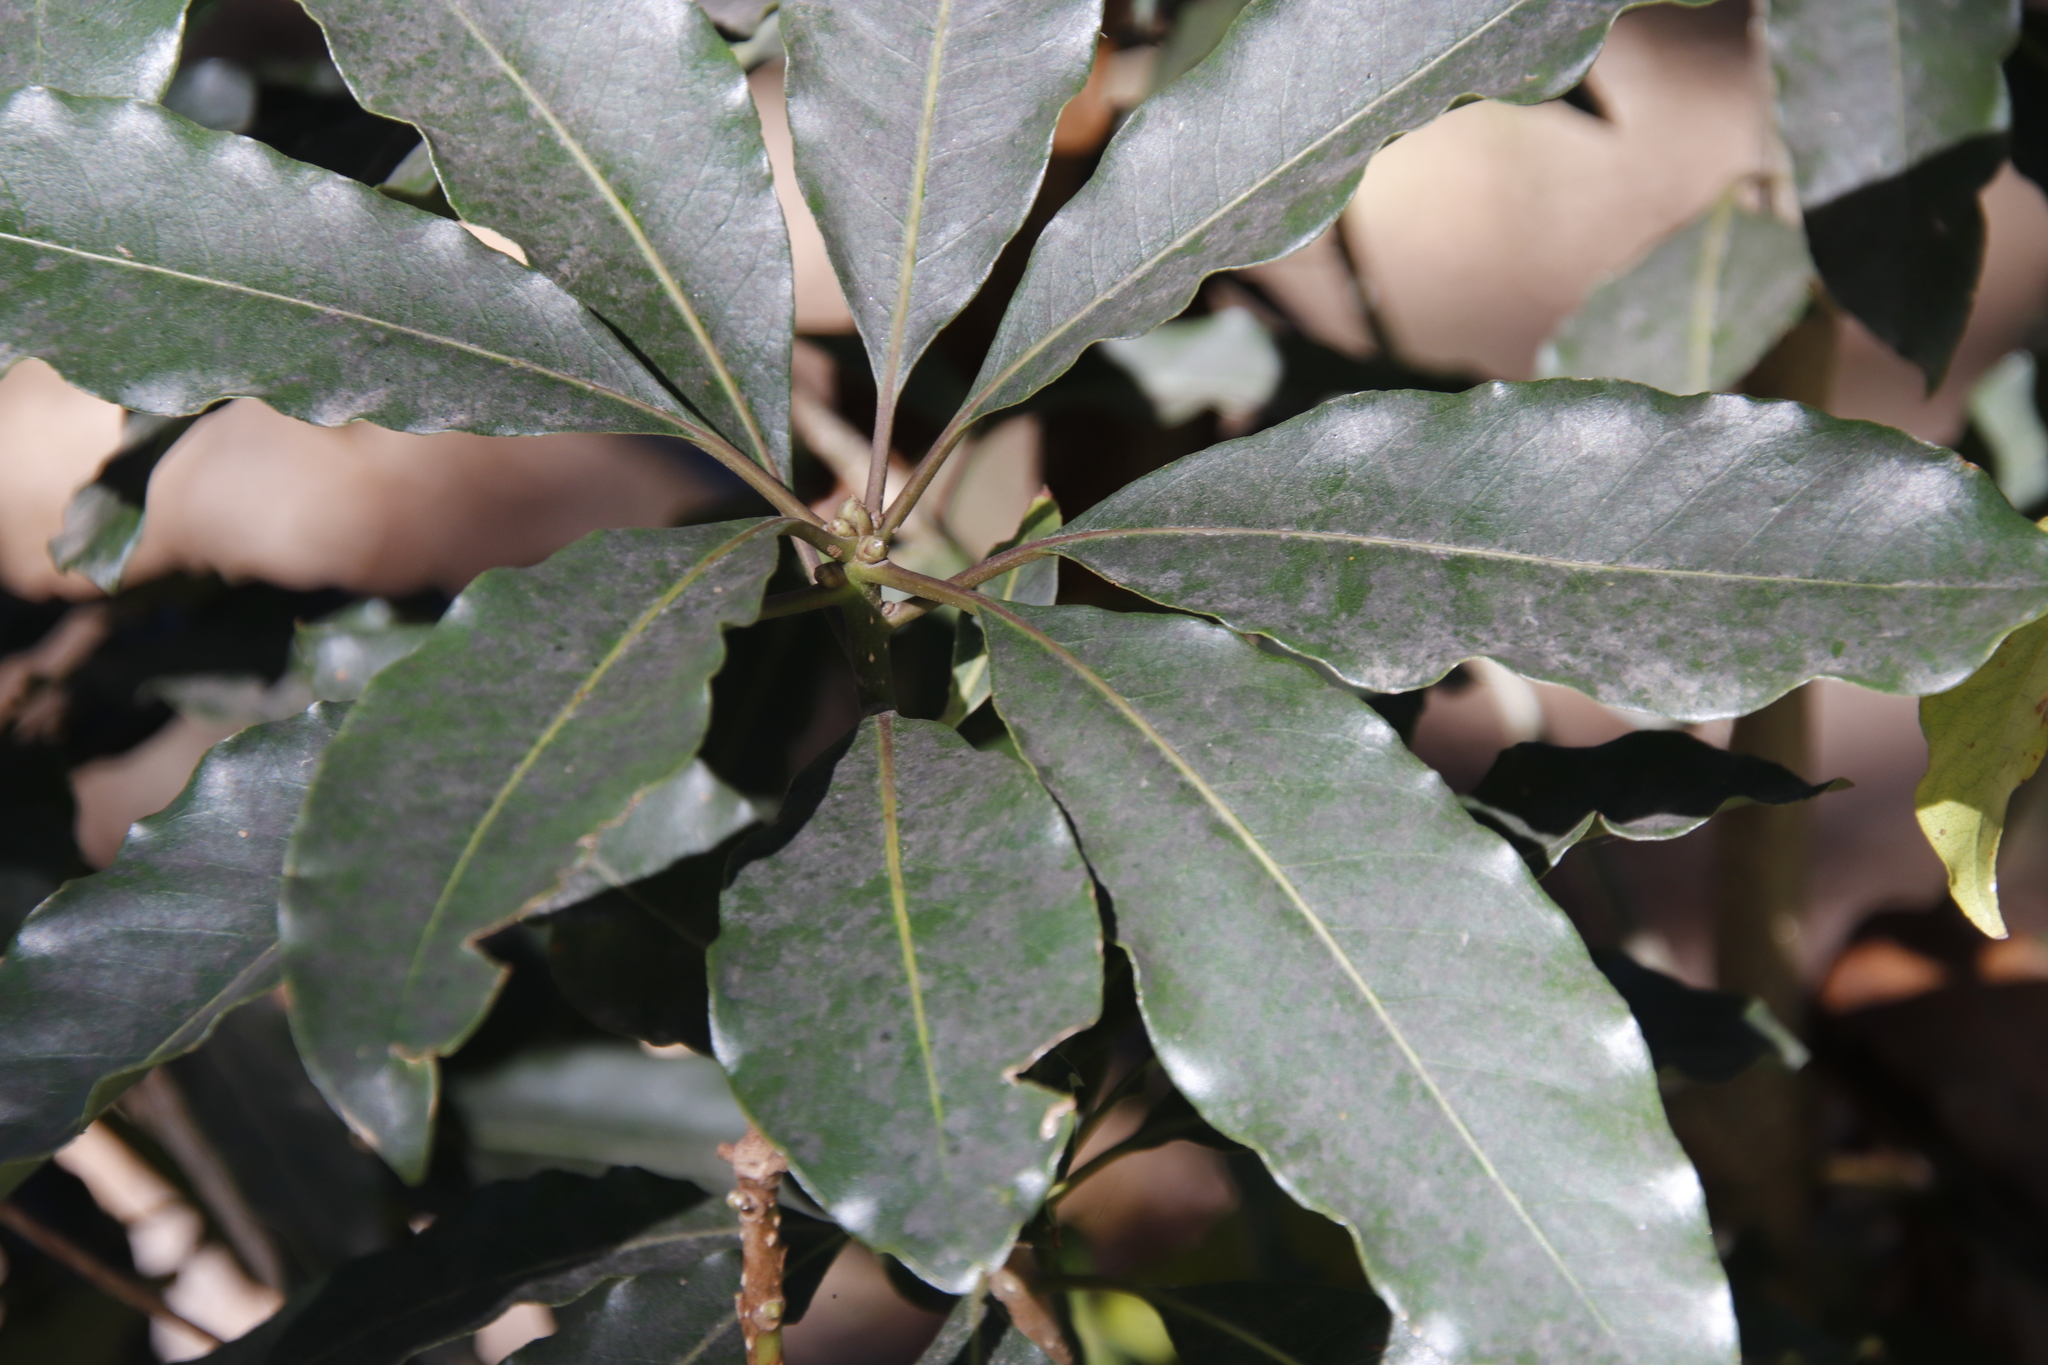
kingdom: Plantae
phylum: Tracheophyta
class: Magnoliopsida
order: Apiales
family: Pittosporaceae
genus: Pittosporum
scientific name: Pittosporum undulatum
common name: Australian cheesewood
